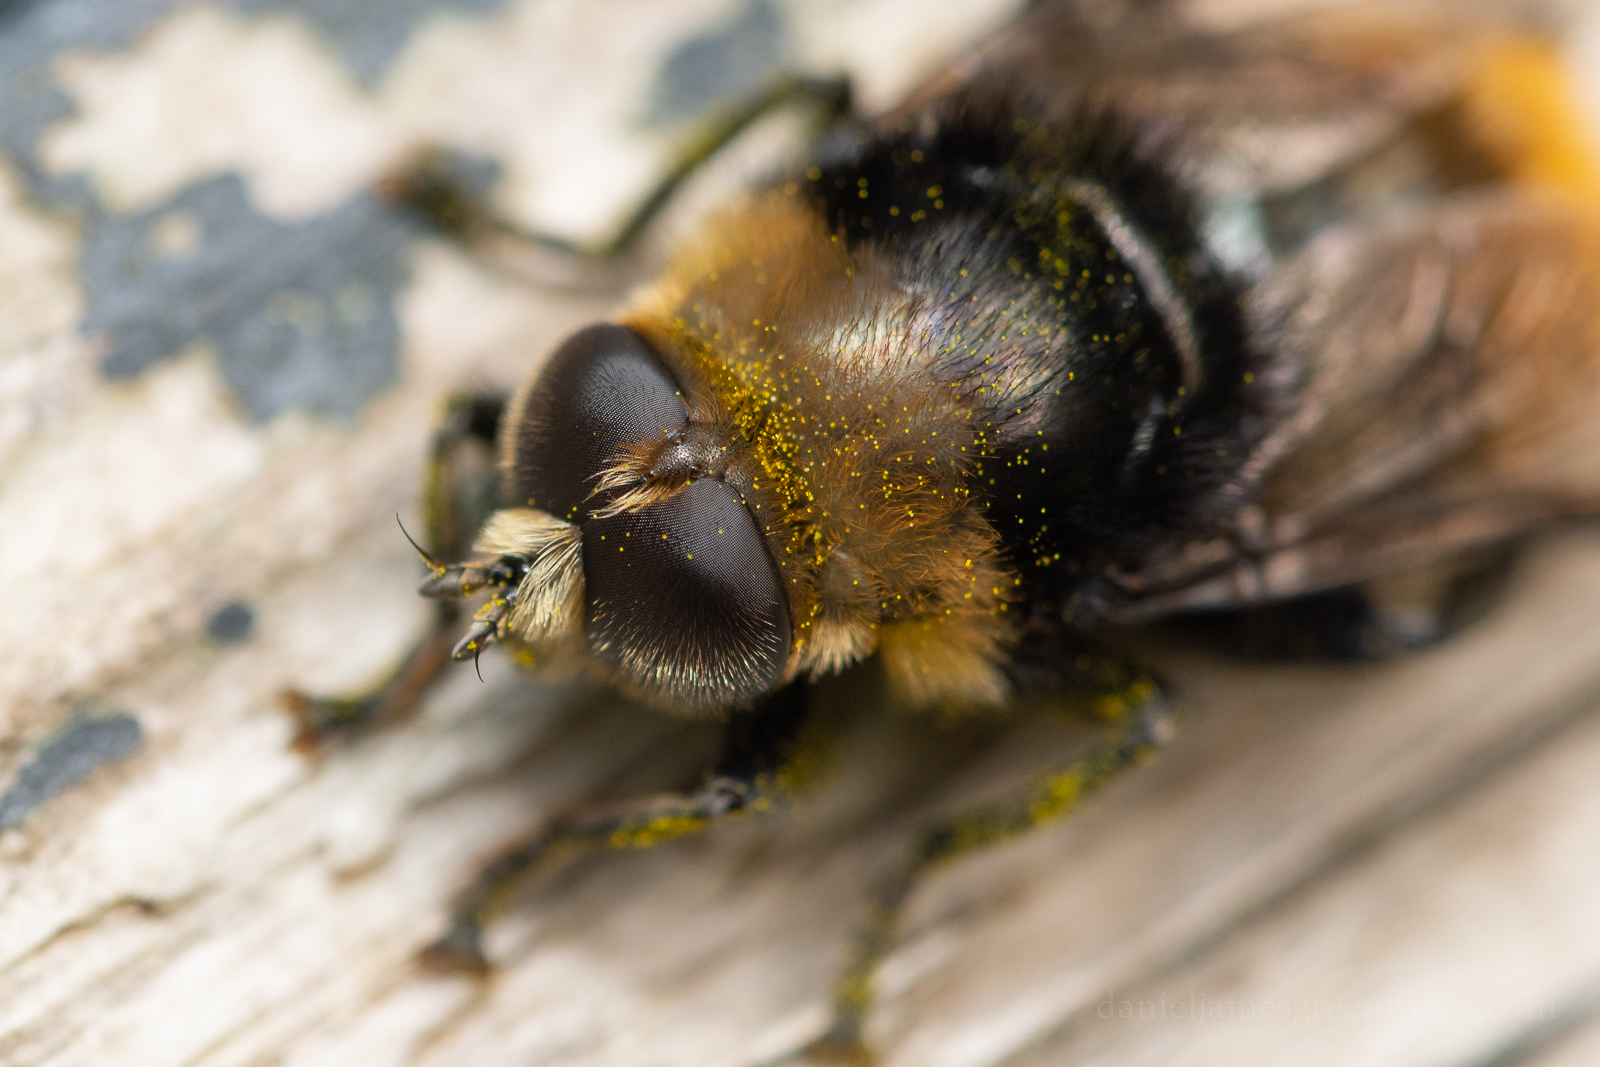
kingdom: Animalia
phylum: Arthropoda
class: Insecta
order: Diptera
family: Syrphidae
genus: Merodon
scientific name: Merodon equestris
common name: Greater bulb-fly
